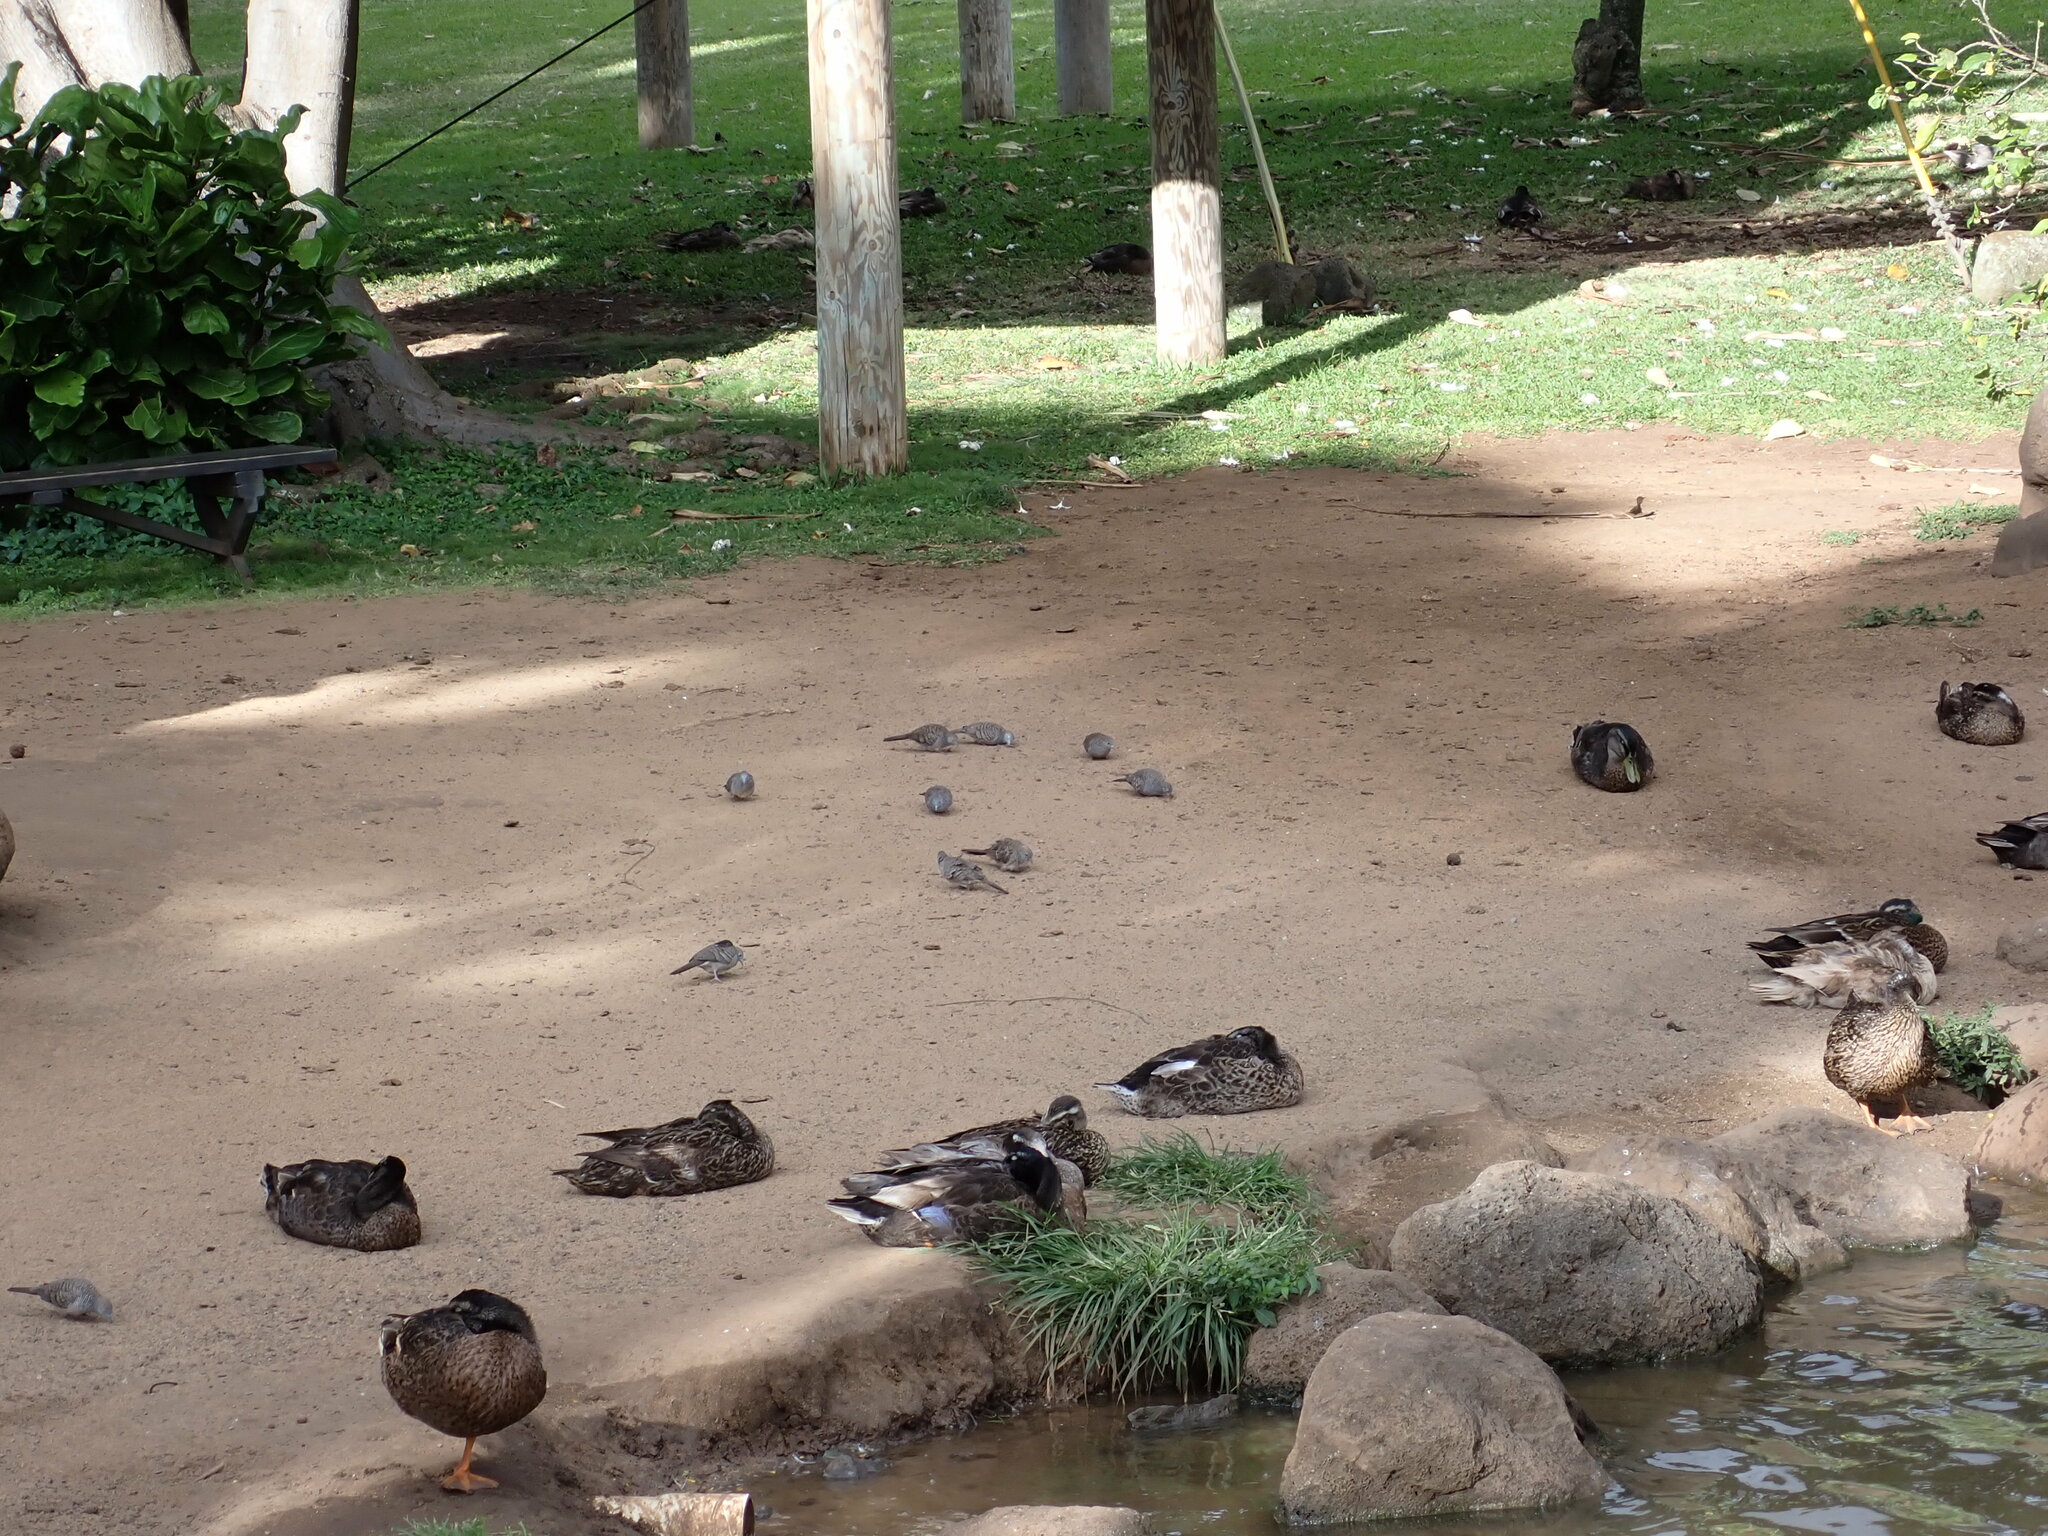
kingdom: Animalia
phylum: Chordata
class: Aves
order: Columbiformes
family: Columbidae
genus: Geopelia
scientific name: Geopelia striata
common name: Zebra dove
